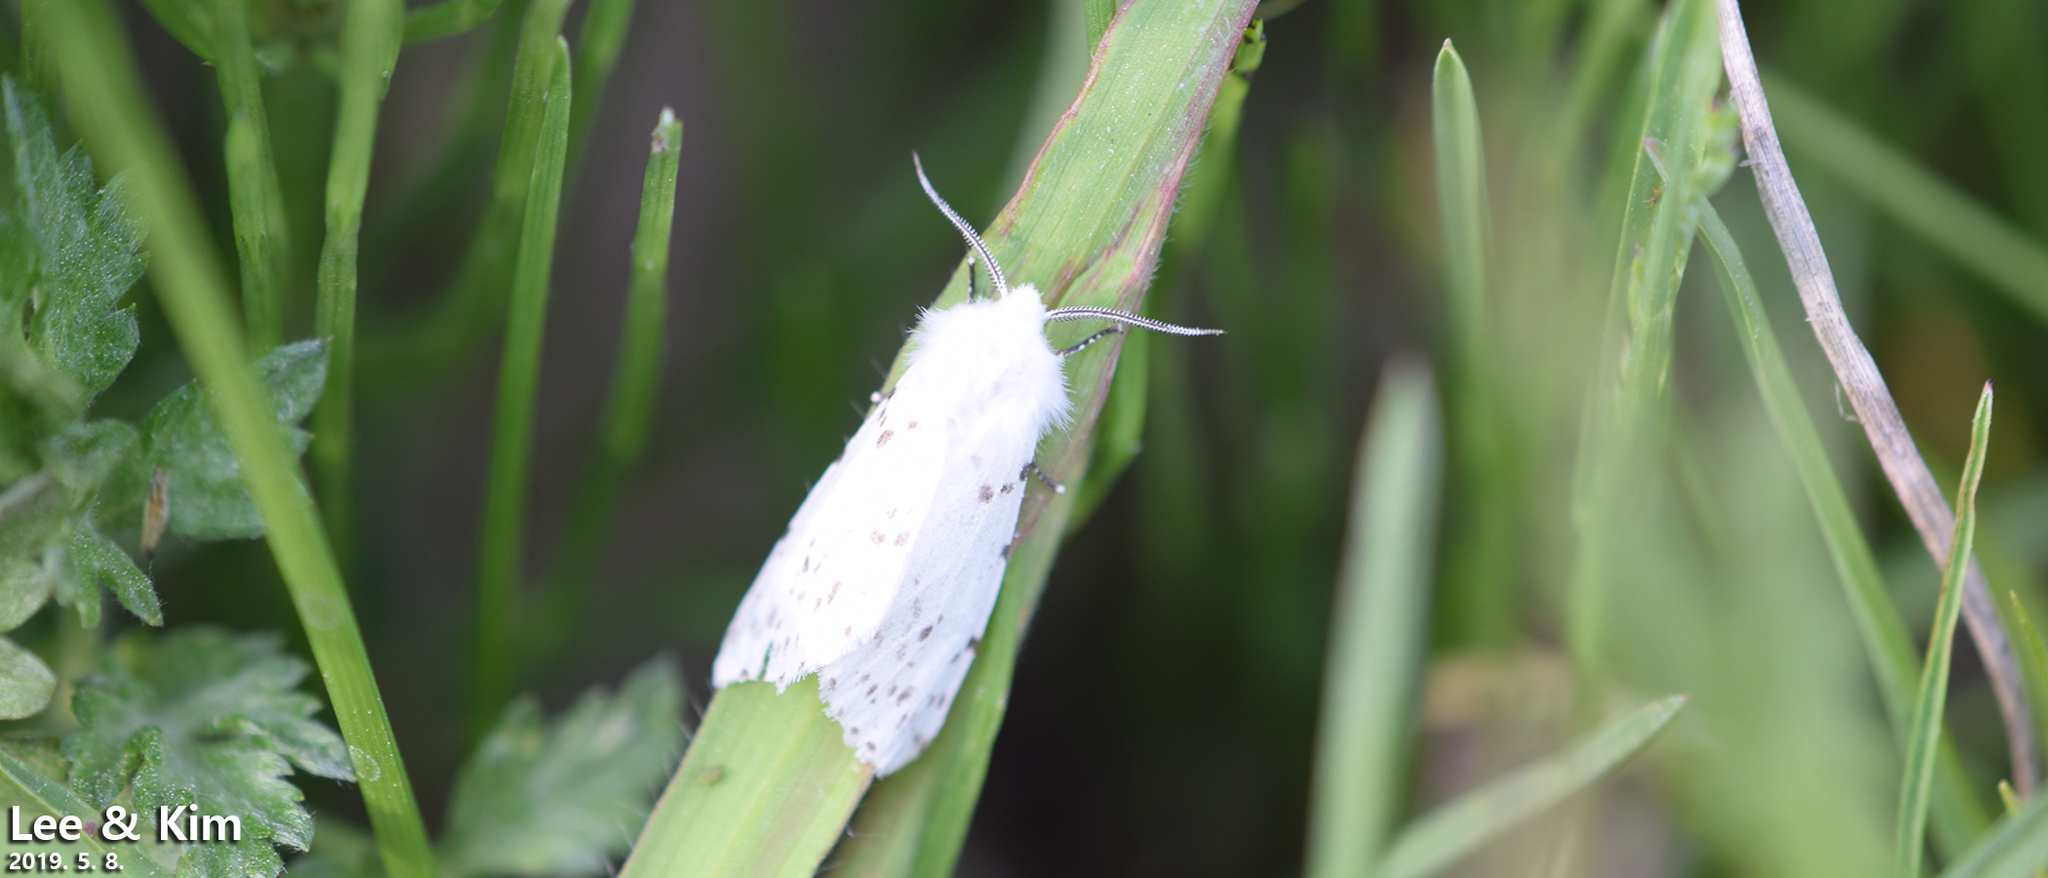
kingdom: Animalia
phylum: Arthropoda
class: Insecta
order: Lepidoptera
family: Erebidae
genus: Hyphantria
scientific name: Hyphantria cunea
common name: American white moth
